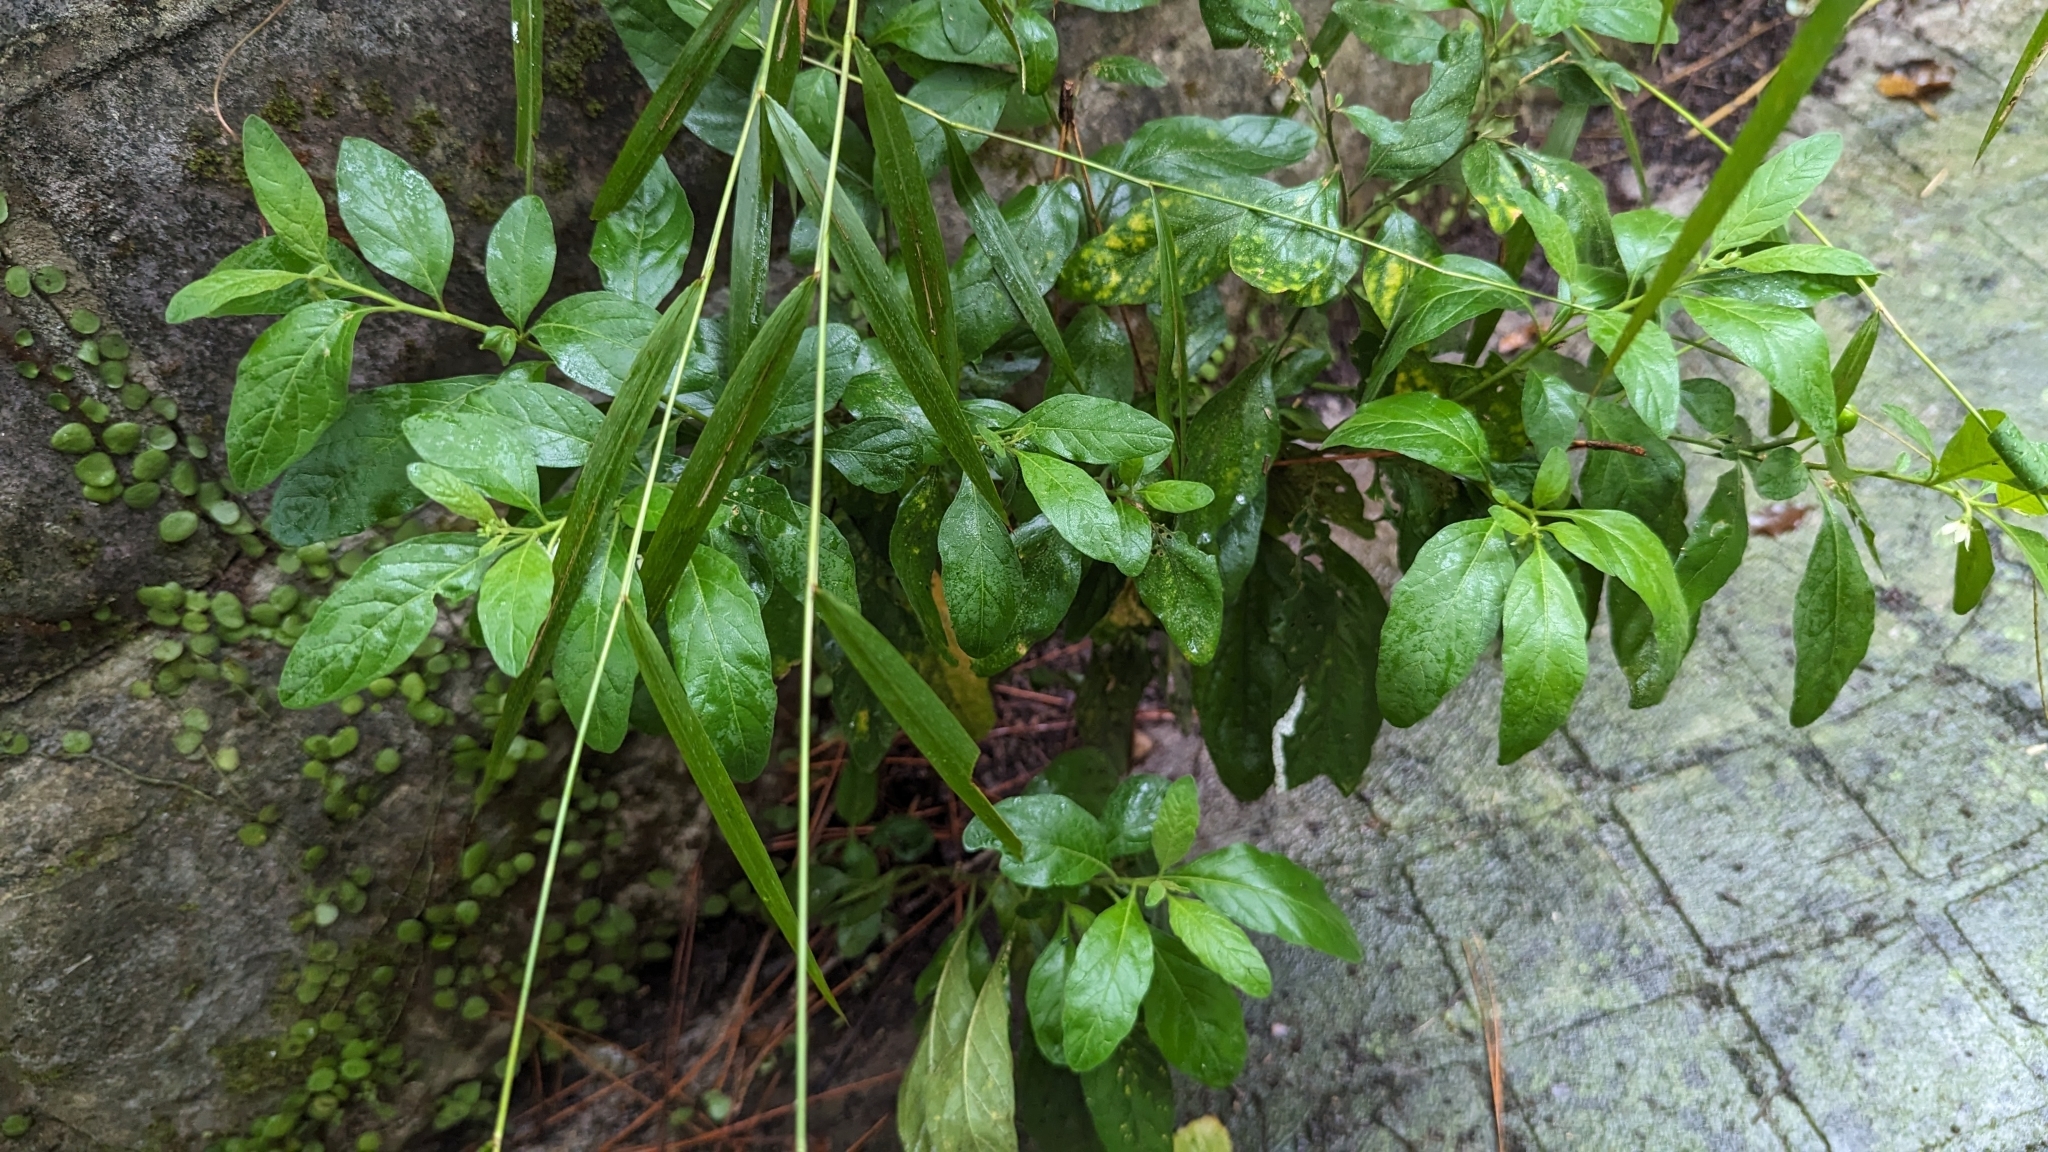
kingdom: Plantae
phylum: Tracheophyta
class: Magnoliopsida
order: Solanales
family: Solanaceae
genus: Solanum
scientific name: Solanum pseudocapsicum
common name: Jerusalem cherry
